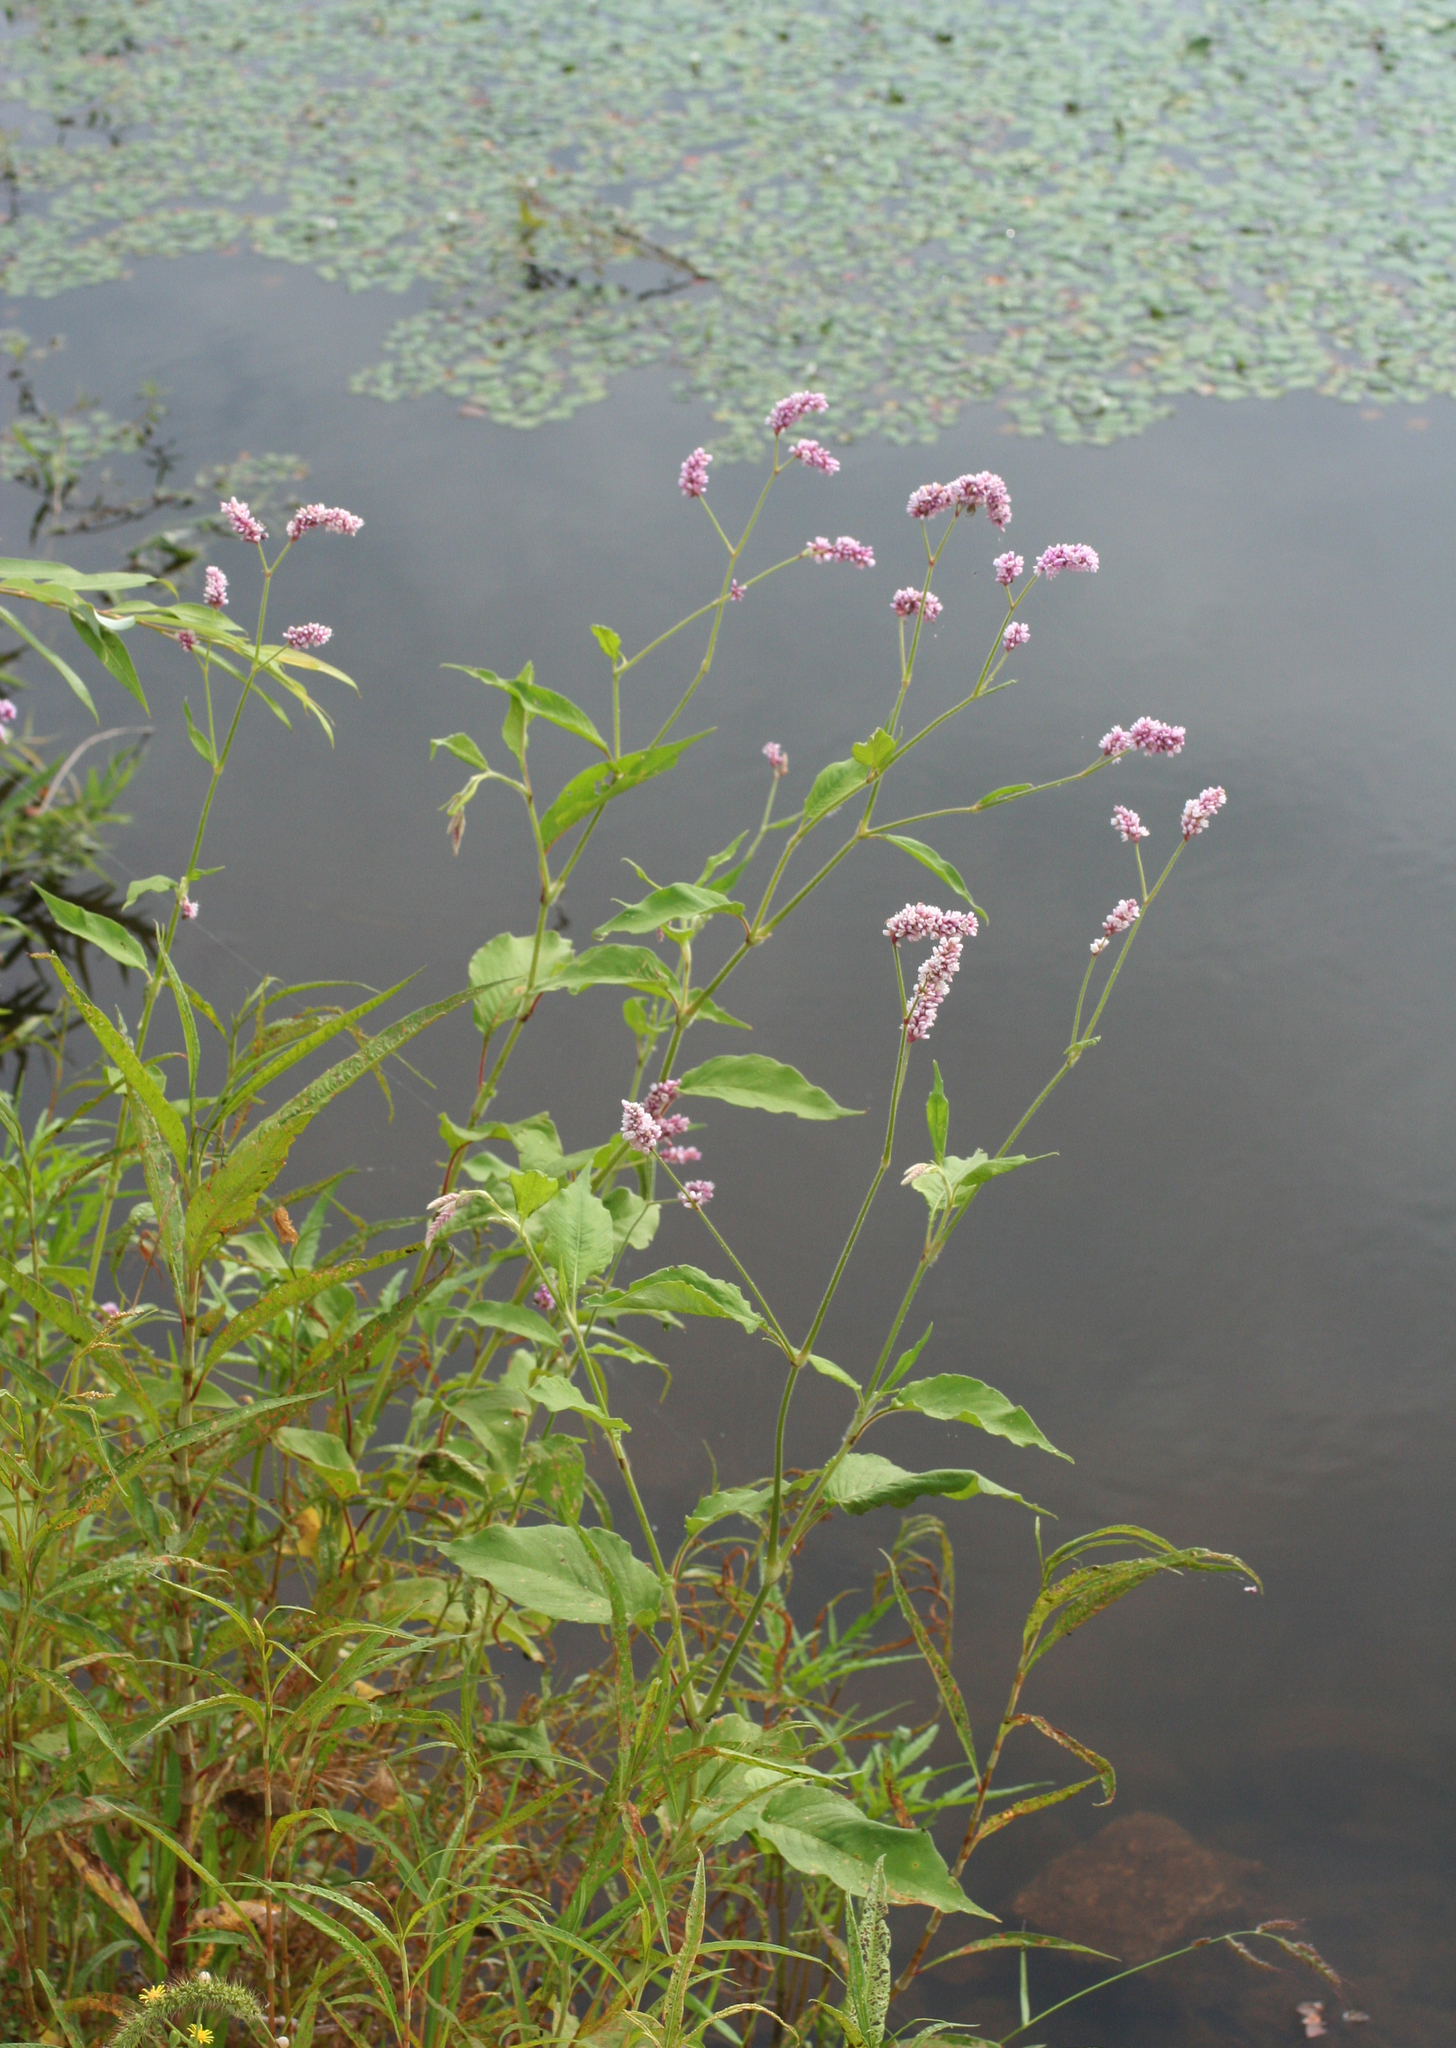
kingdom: Plantae
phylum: Tracheophyta
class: Magnoliopsida
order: Caryophyllales
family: Polygonaceae
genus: Persicaria
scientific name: Persicaria orientalis
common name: Kiss-me-over-the-garden-gate
